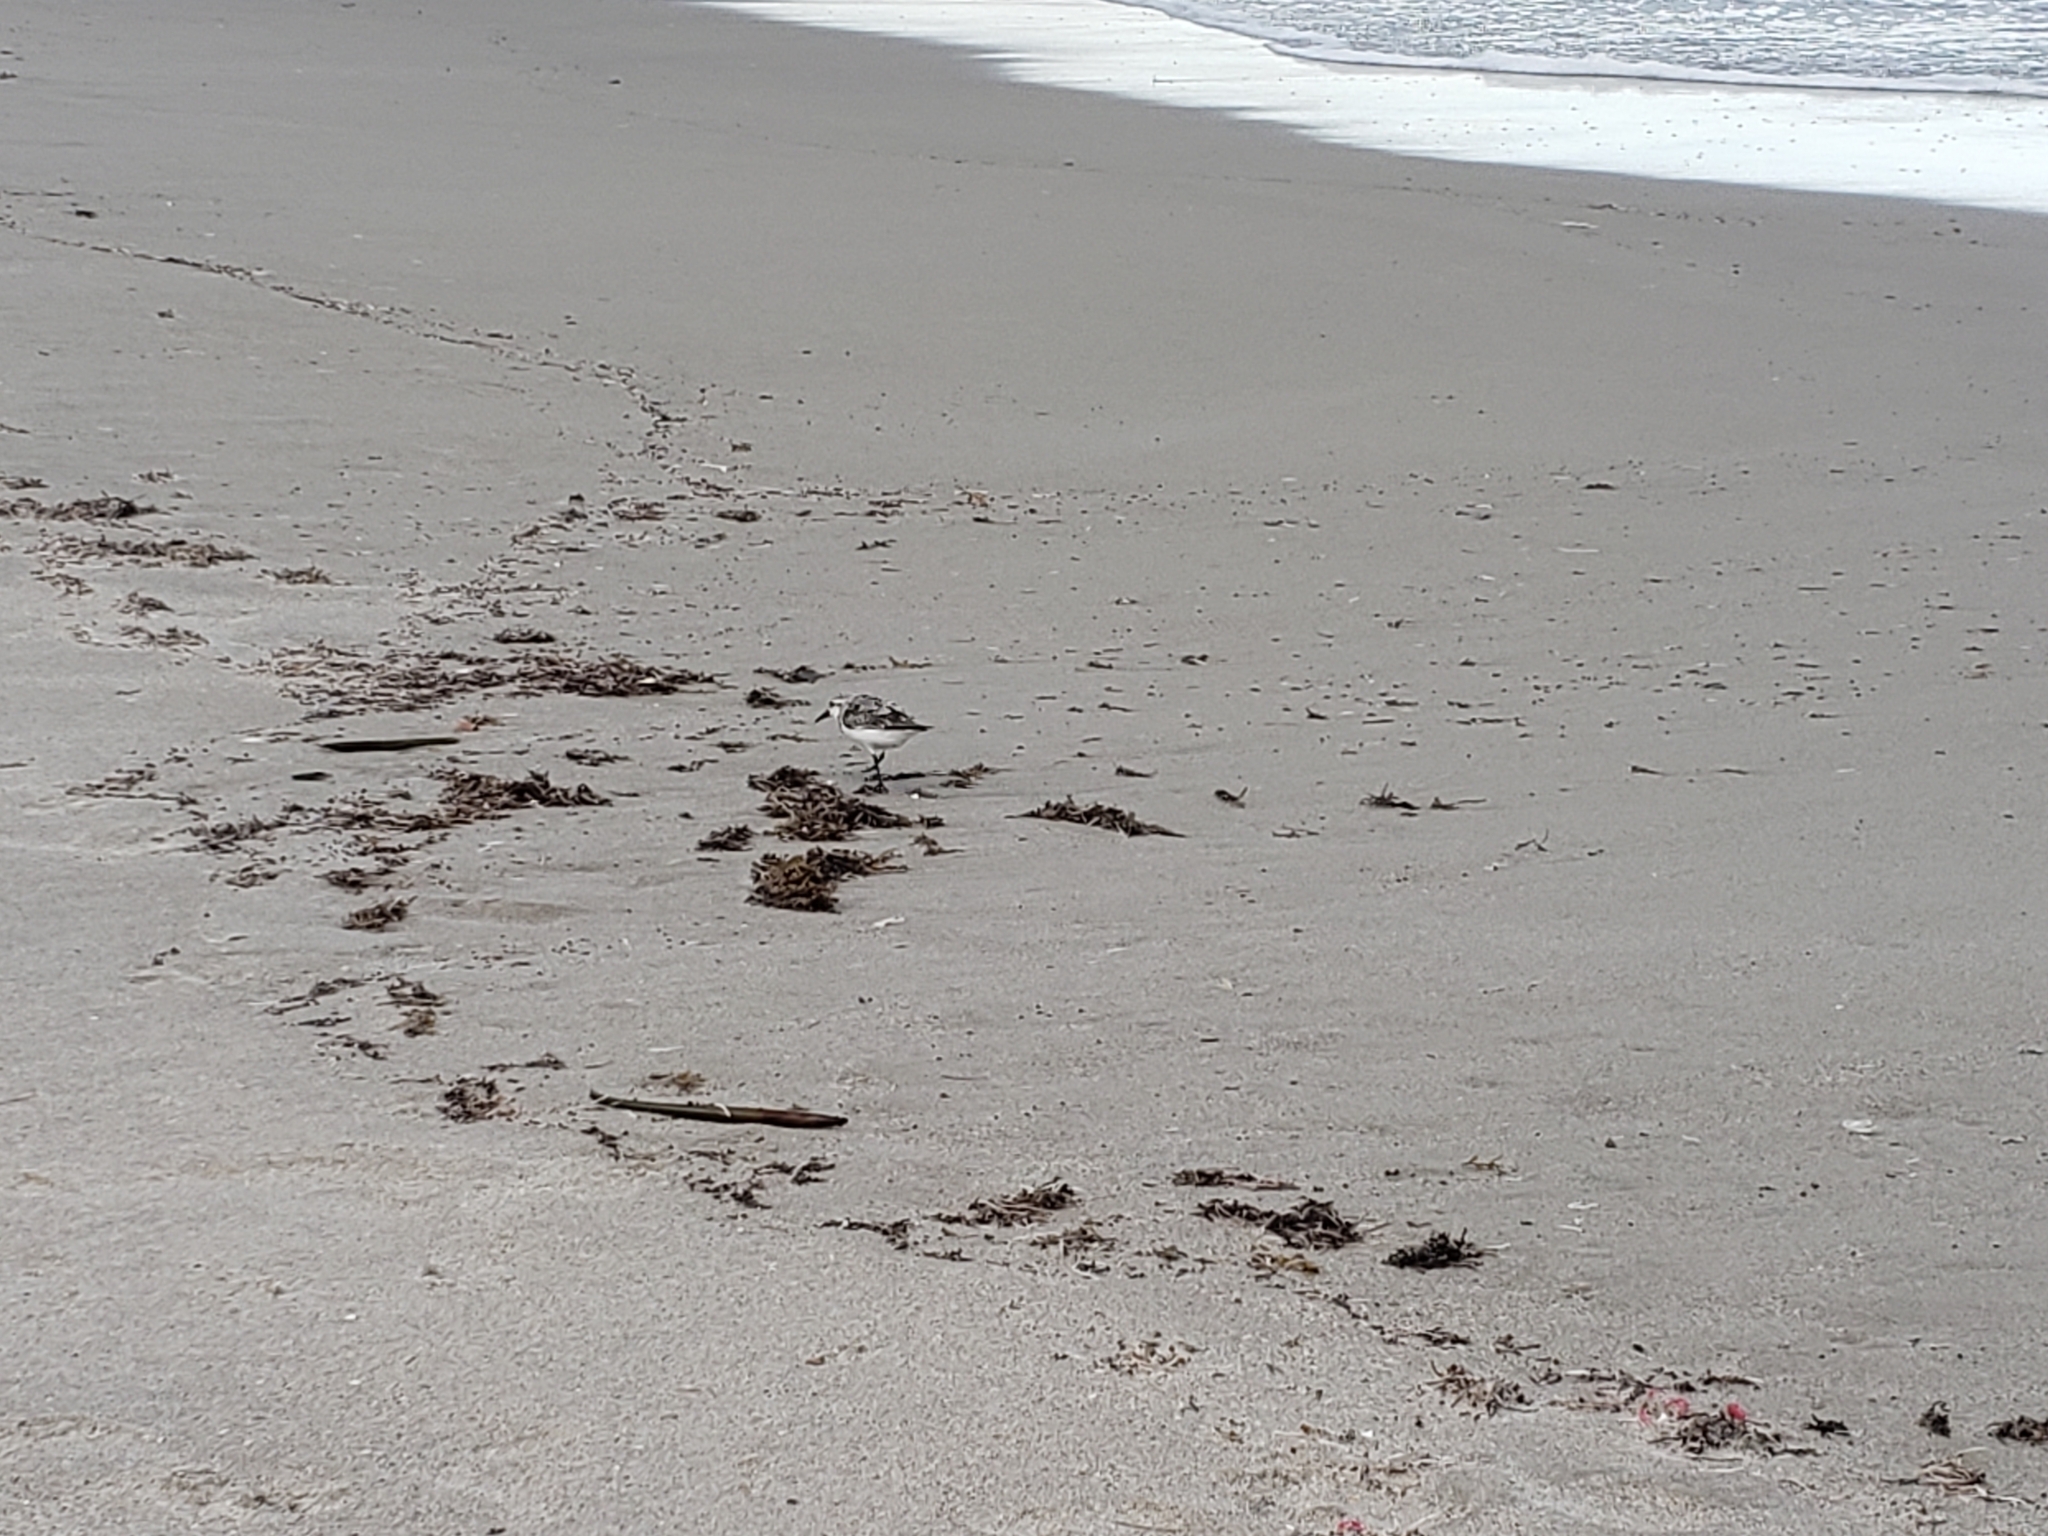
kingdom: Animalia
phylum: Chordata
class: Aves
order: Charadriiformes
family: Scolopacidae
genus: Calidris
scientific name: Calidris alba
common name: Sanderling
